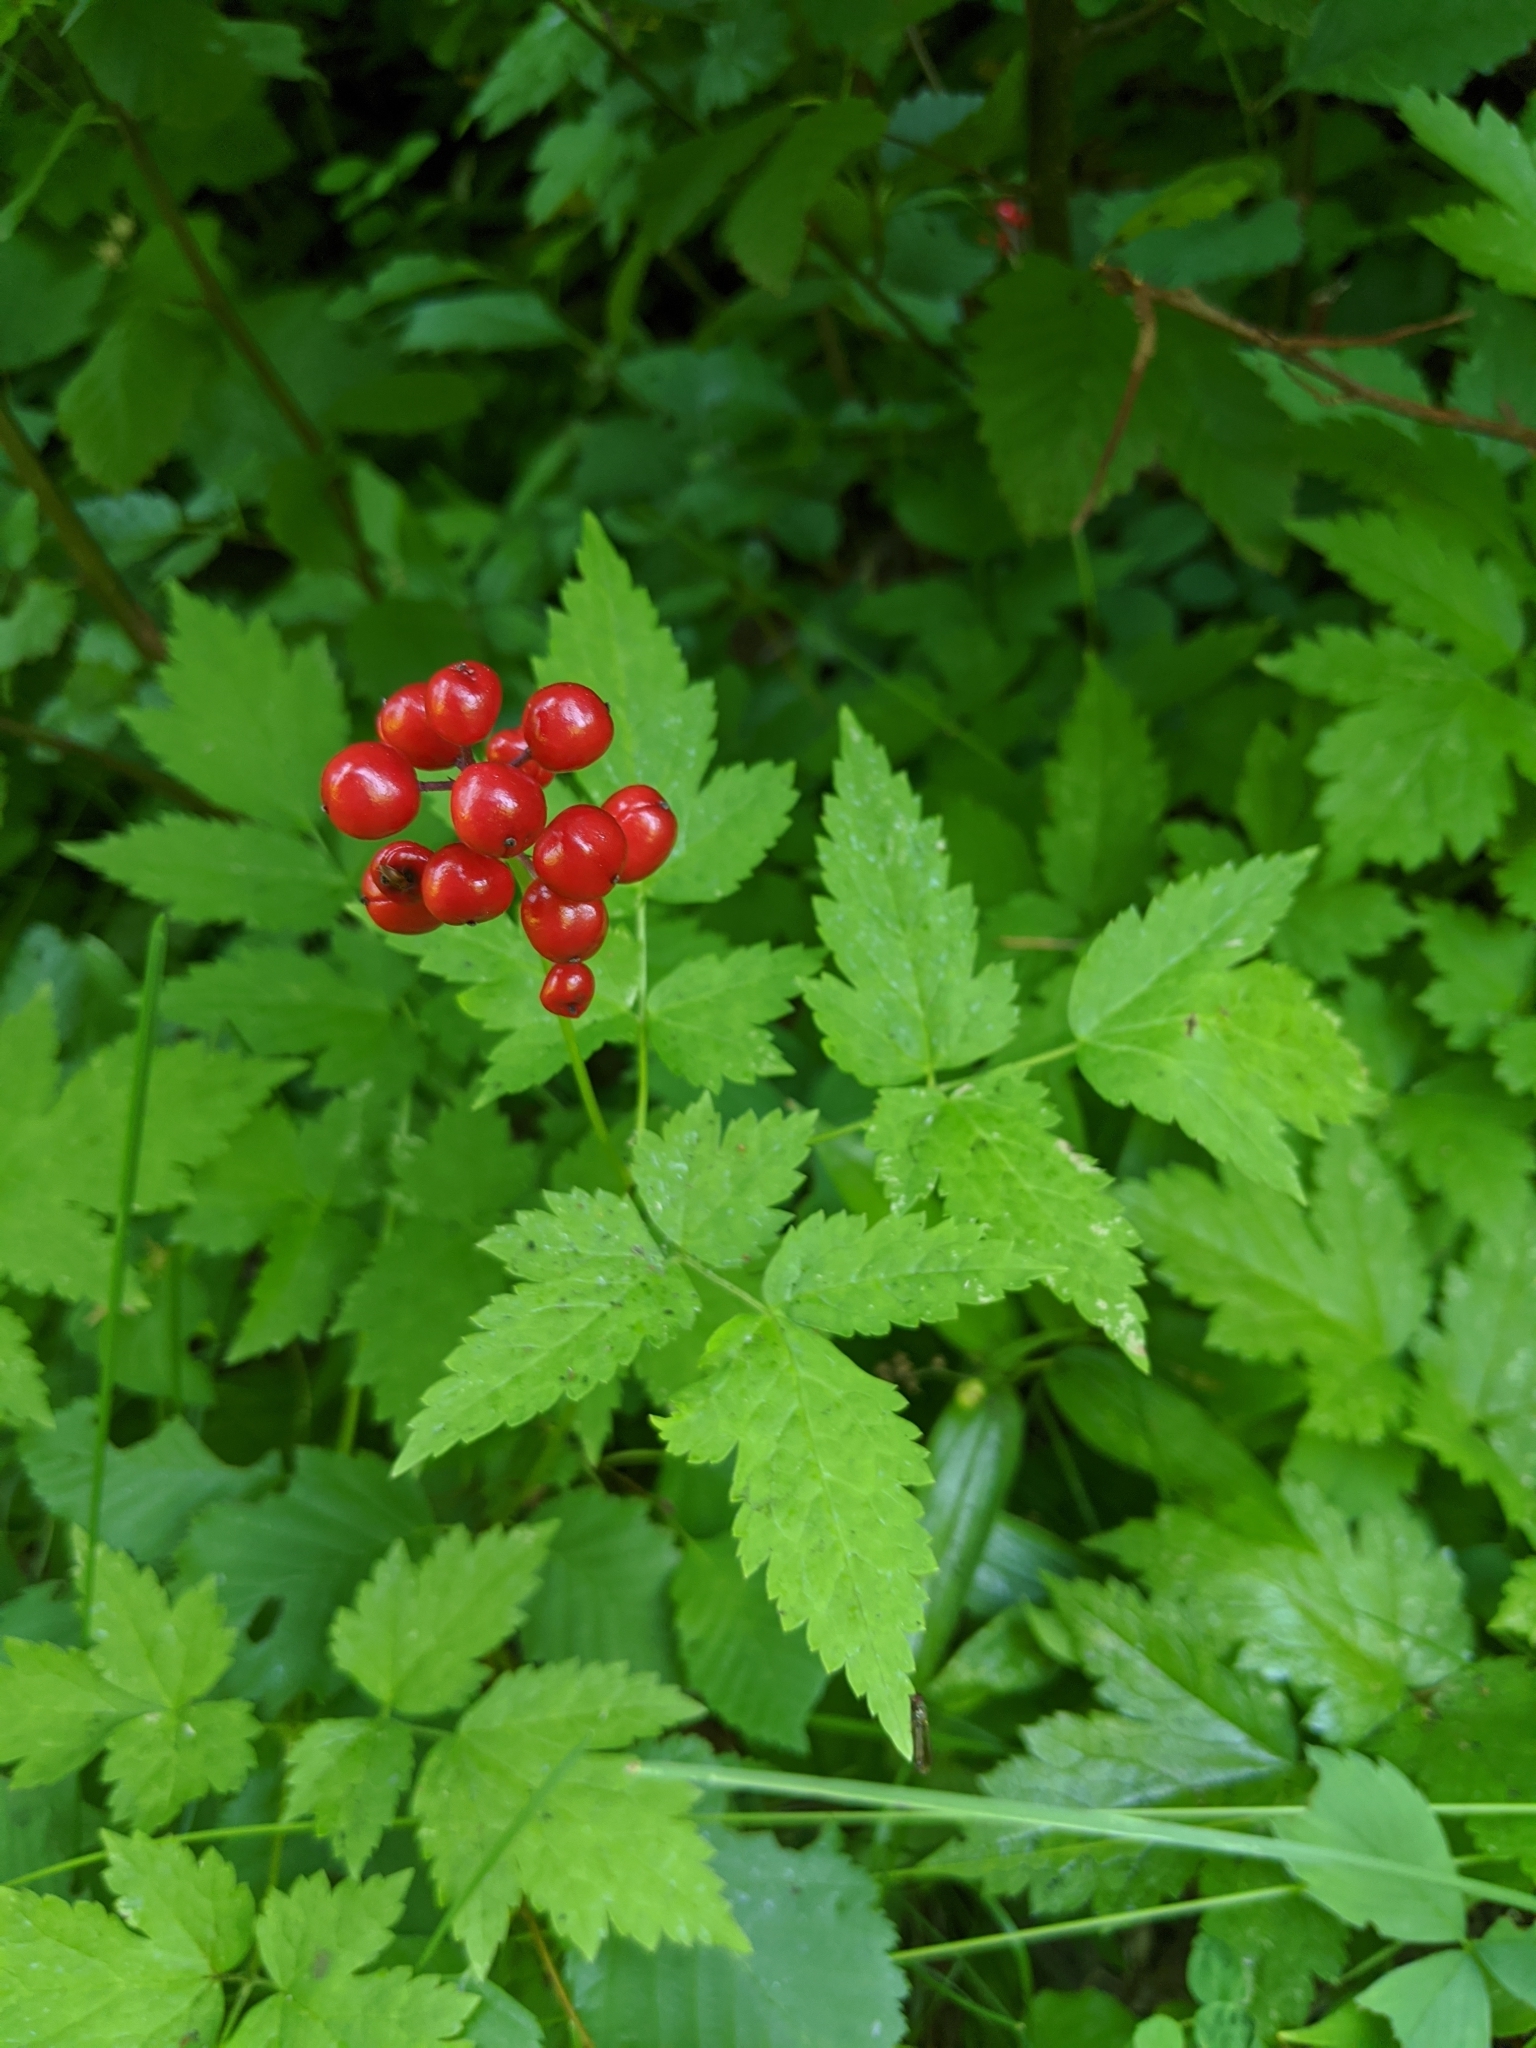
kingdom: Plantae
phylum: Tracheophyta
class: Magnoliopsida
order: Ranunculales
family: Ranunculaceae
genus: Actaea
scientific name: Actaea rubra
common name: Red baneberry
